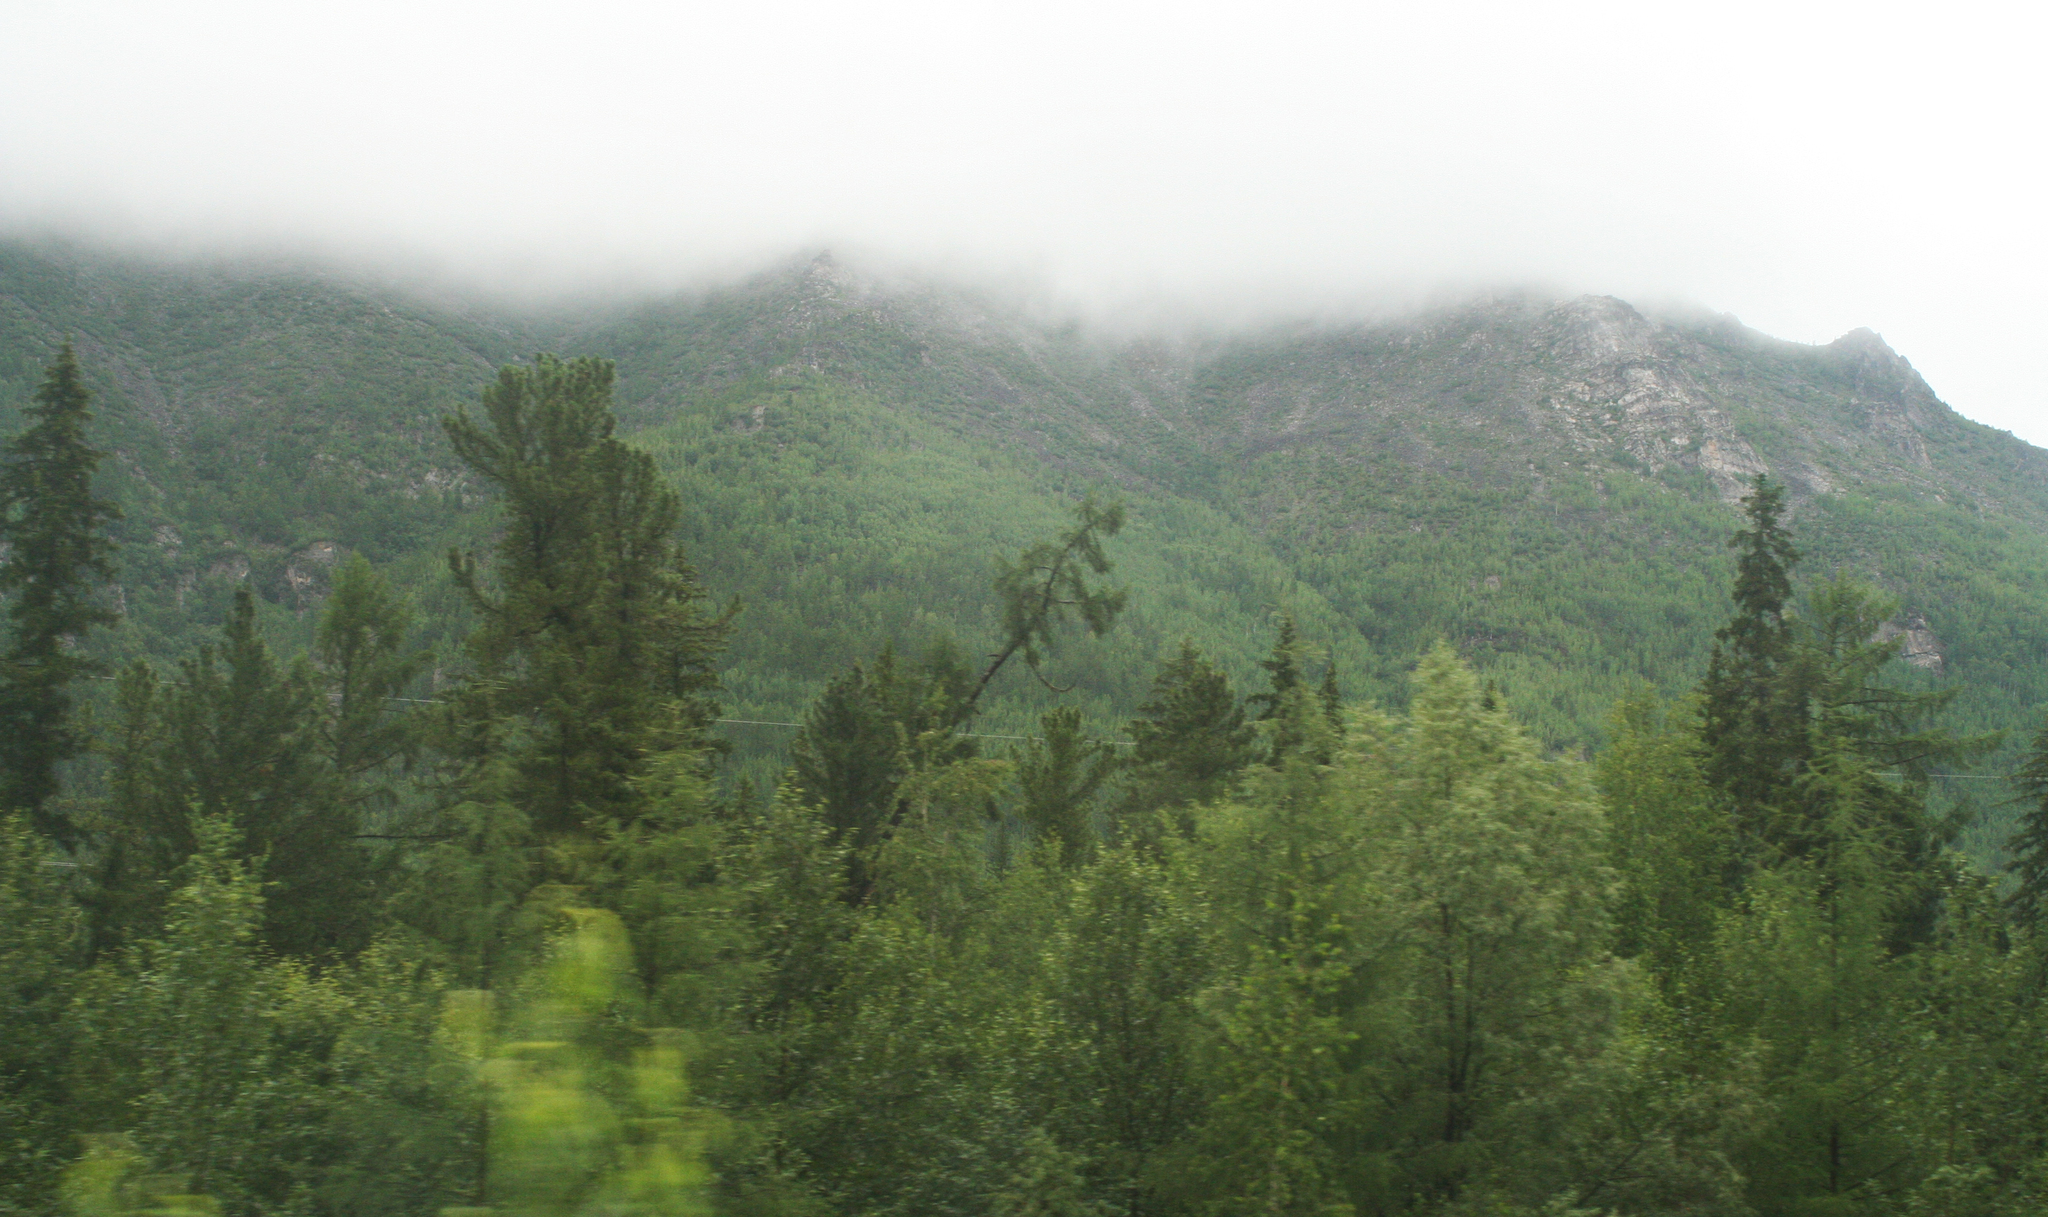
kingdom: Plantae
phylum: Tracheophyta
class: Pinopsida
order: Pinales
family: Pinaceae
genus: Pinus
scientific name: Pinus sibirica
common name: Siberian pine
